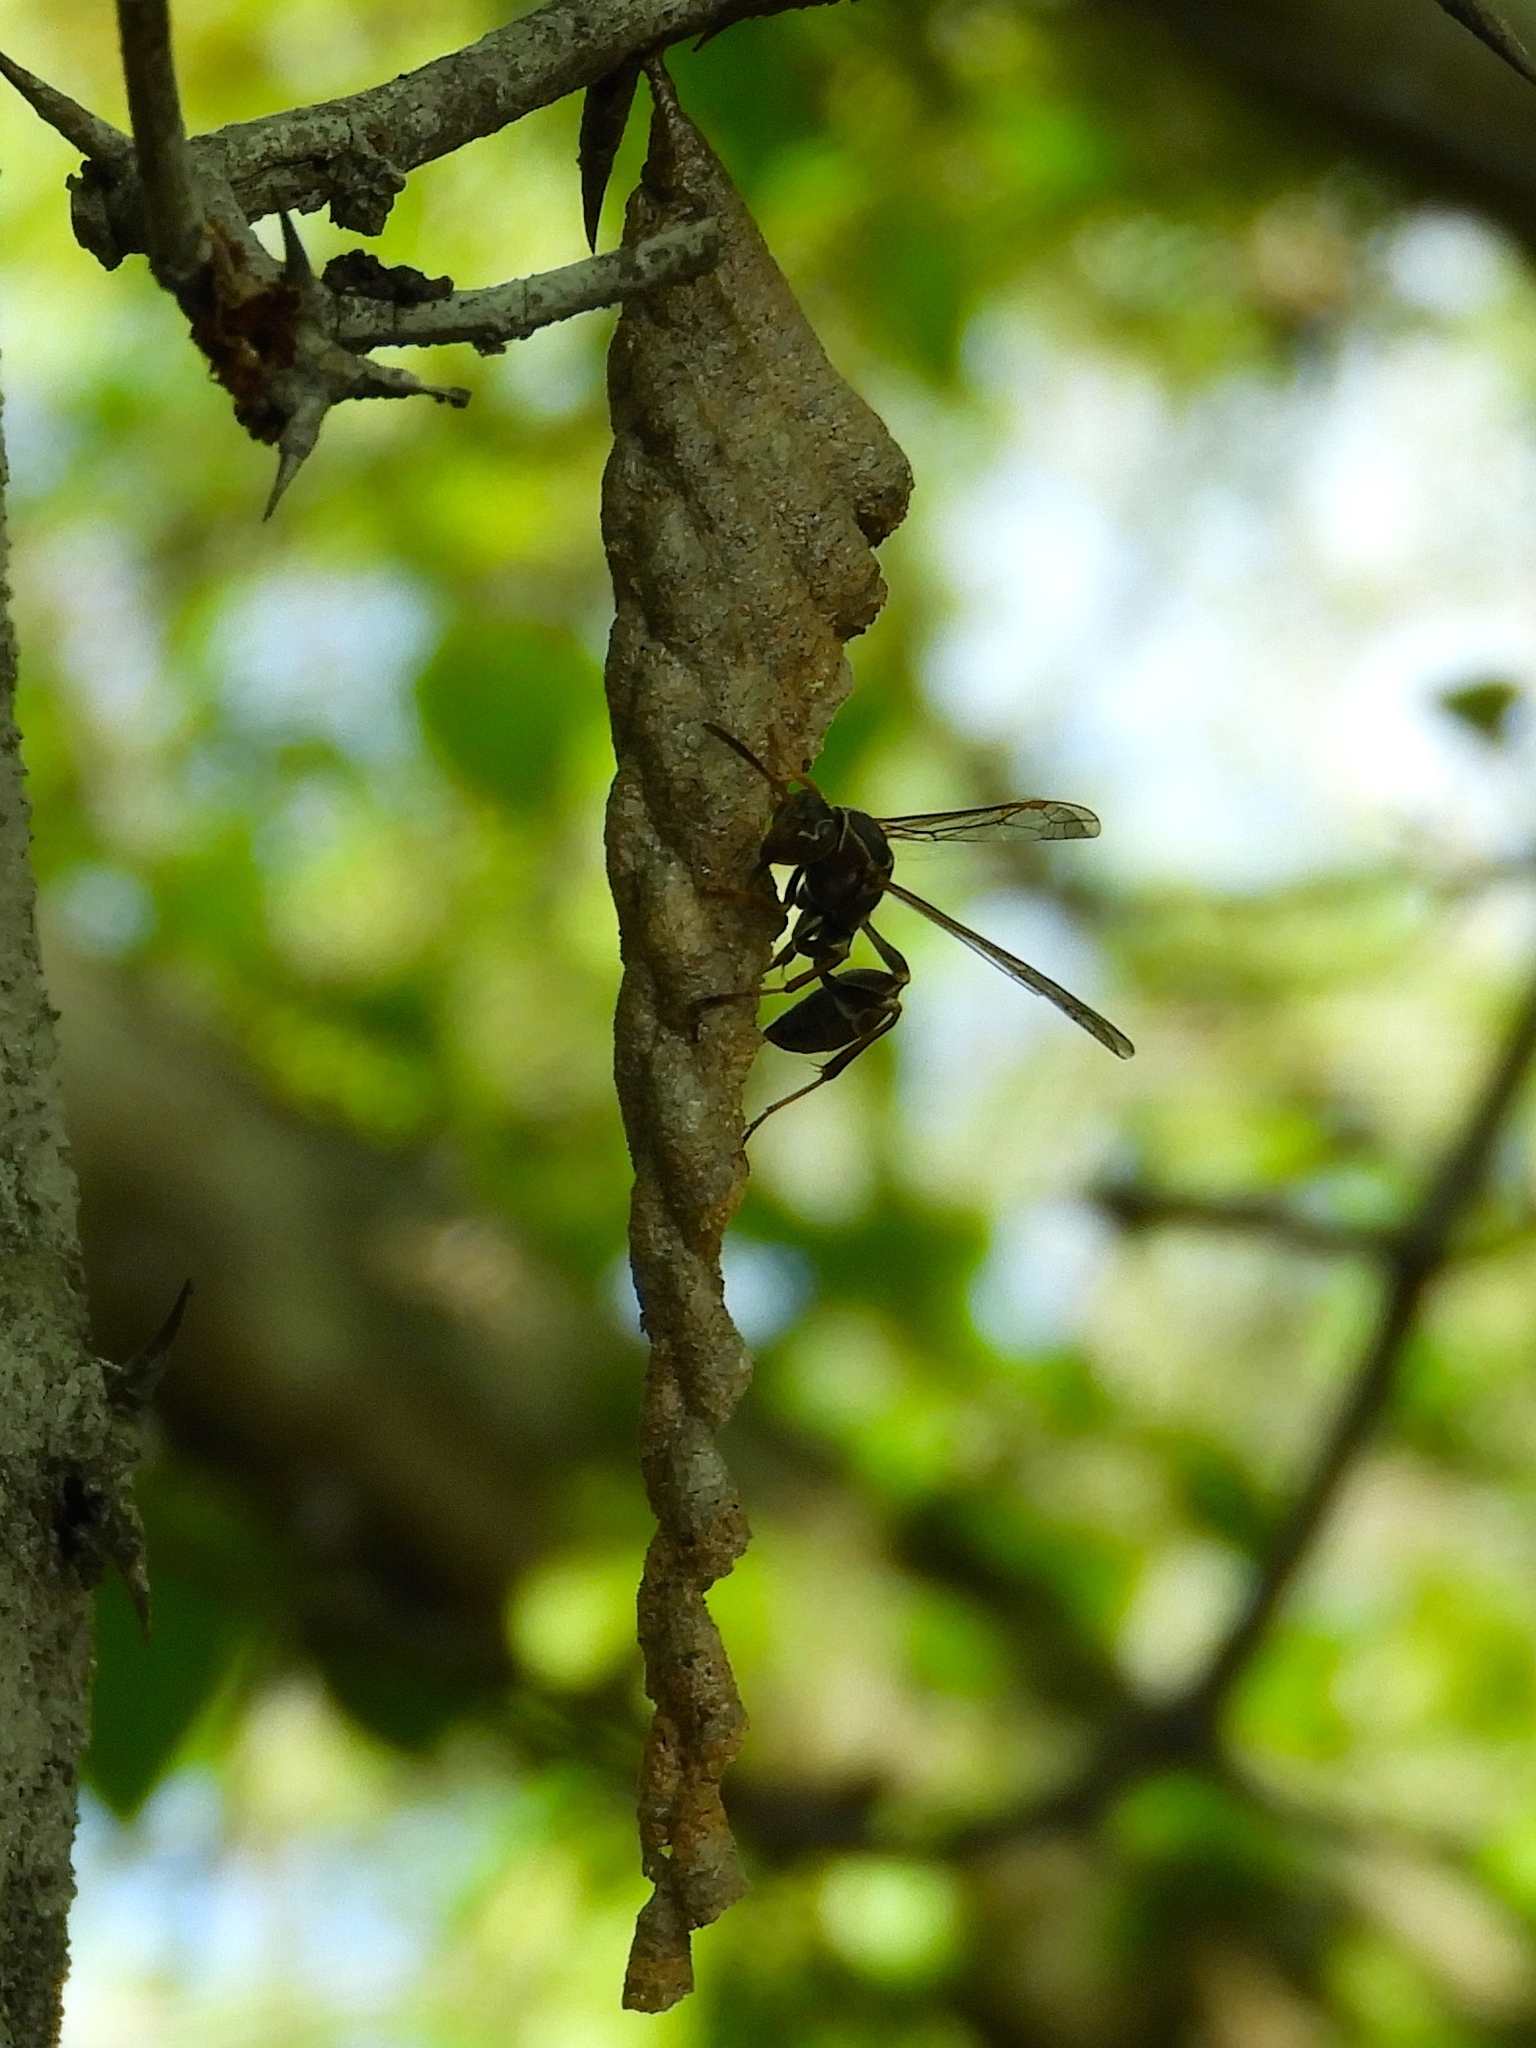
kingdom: Animalia
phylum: Arthropoda
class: Insecta
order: Hymenoptera
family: Vespidae
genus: Mischocyttarus
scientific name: Mischocyttarus
